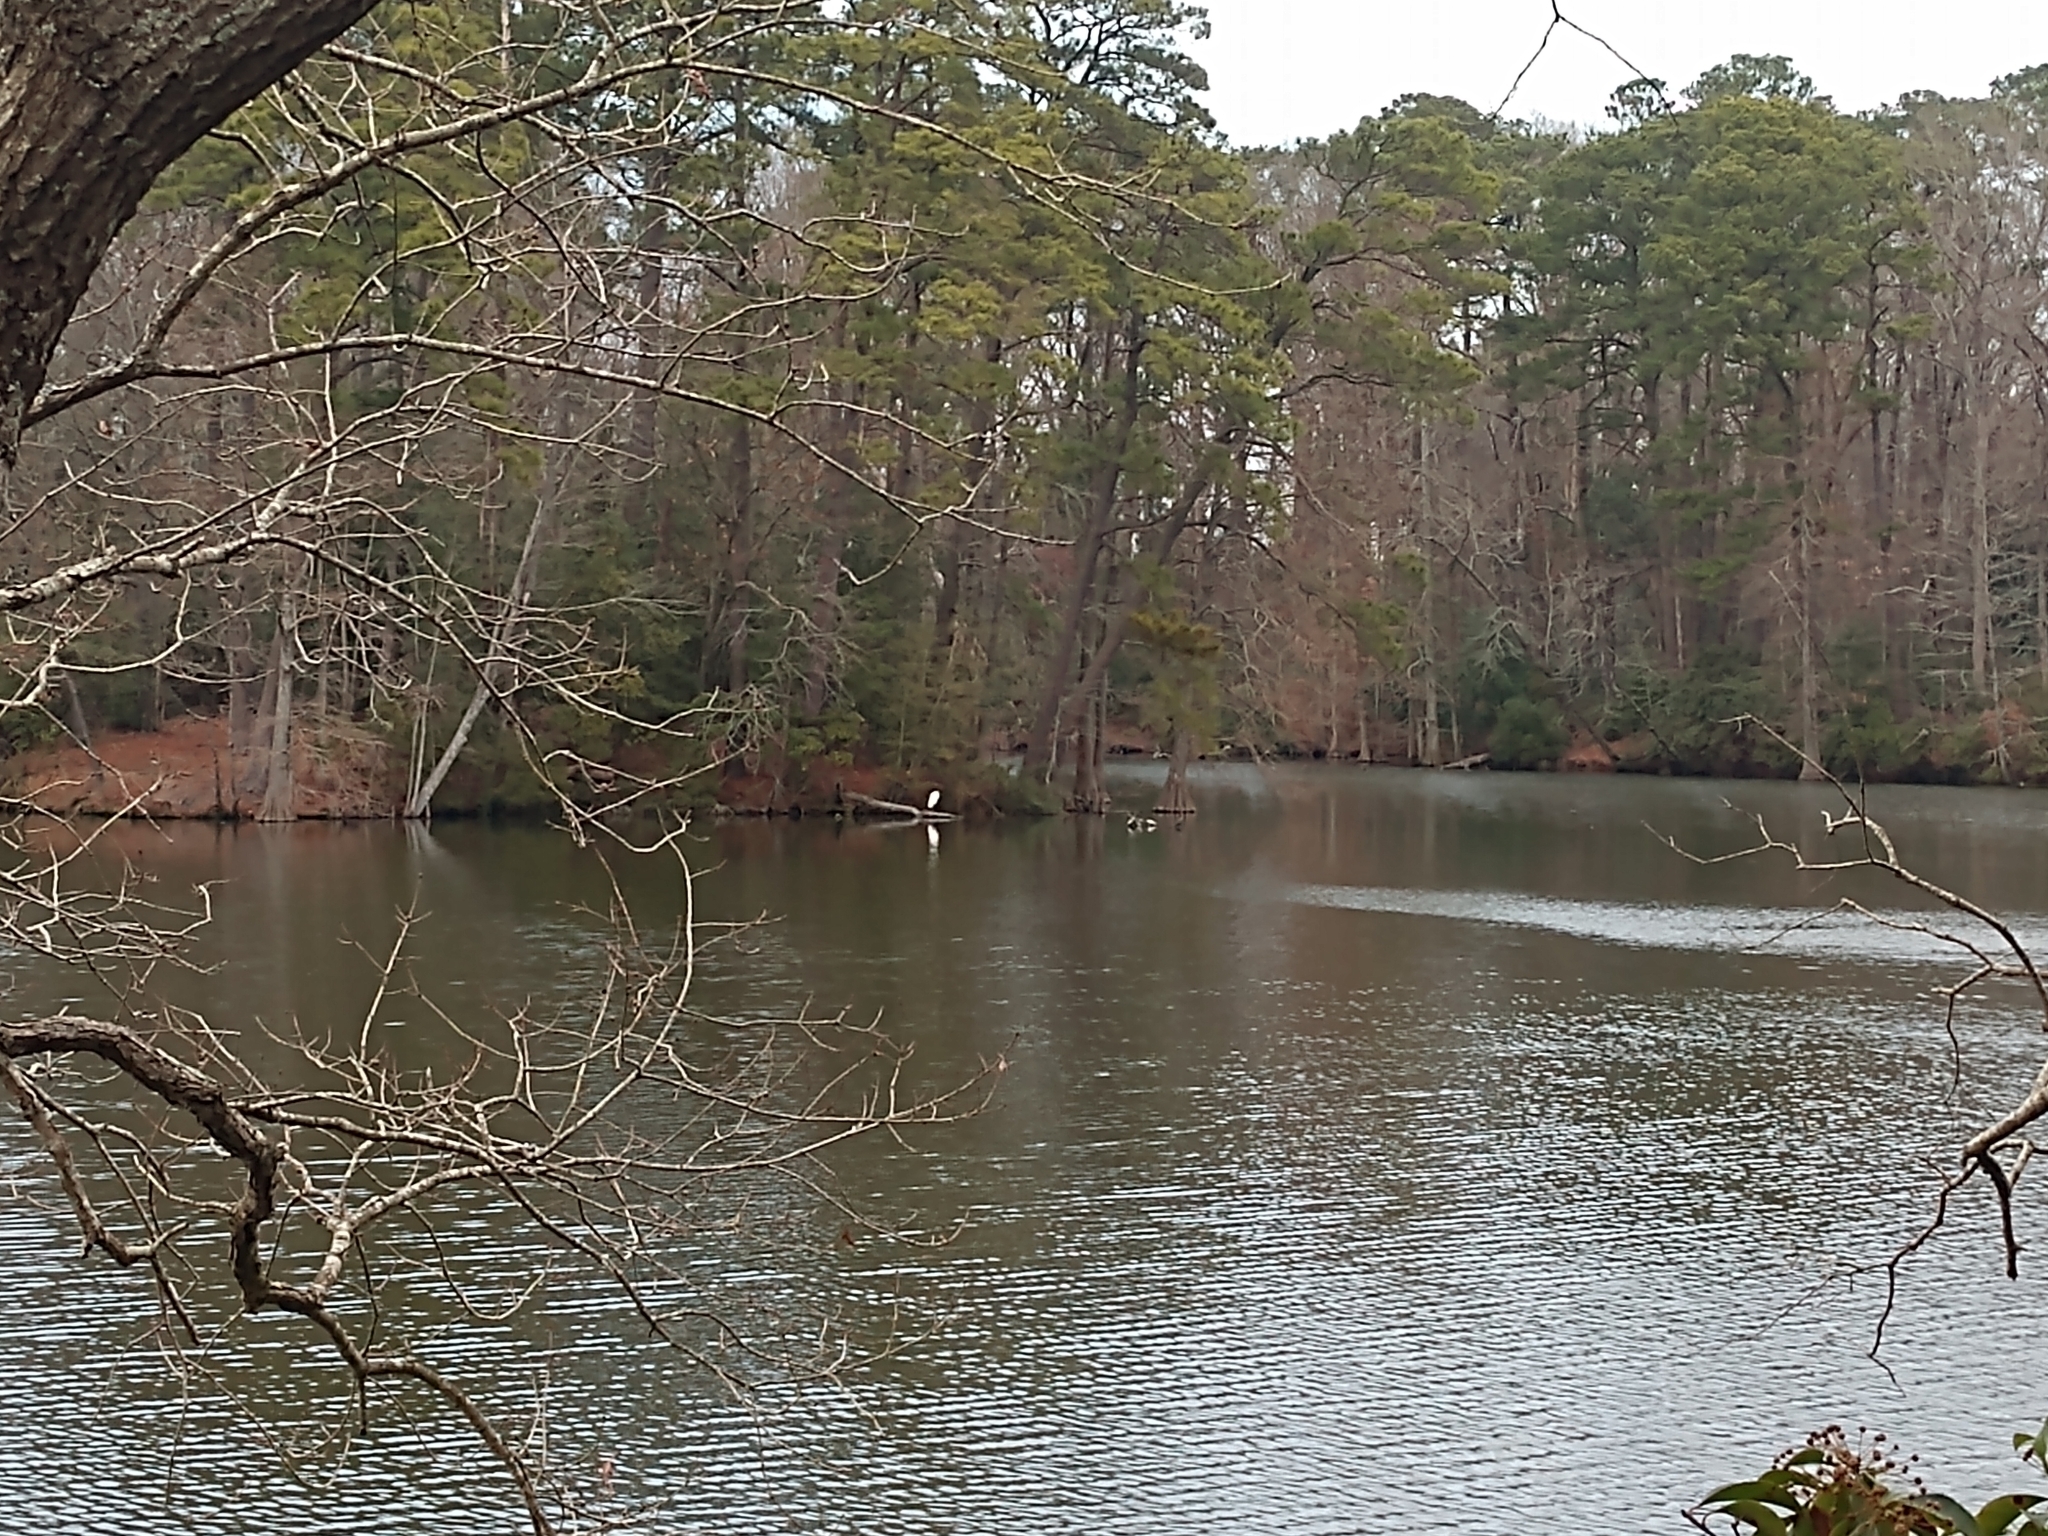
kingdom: Animalia
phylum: Chordata
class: Aves
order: Pelecaniformes
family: Ardeidae
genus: Ardea
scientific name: Ardea alba
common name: Great egret
